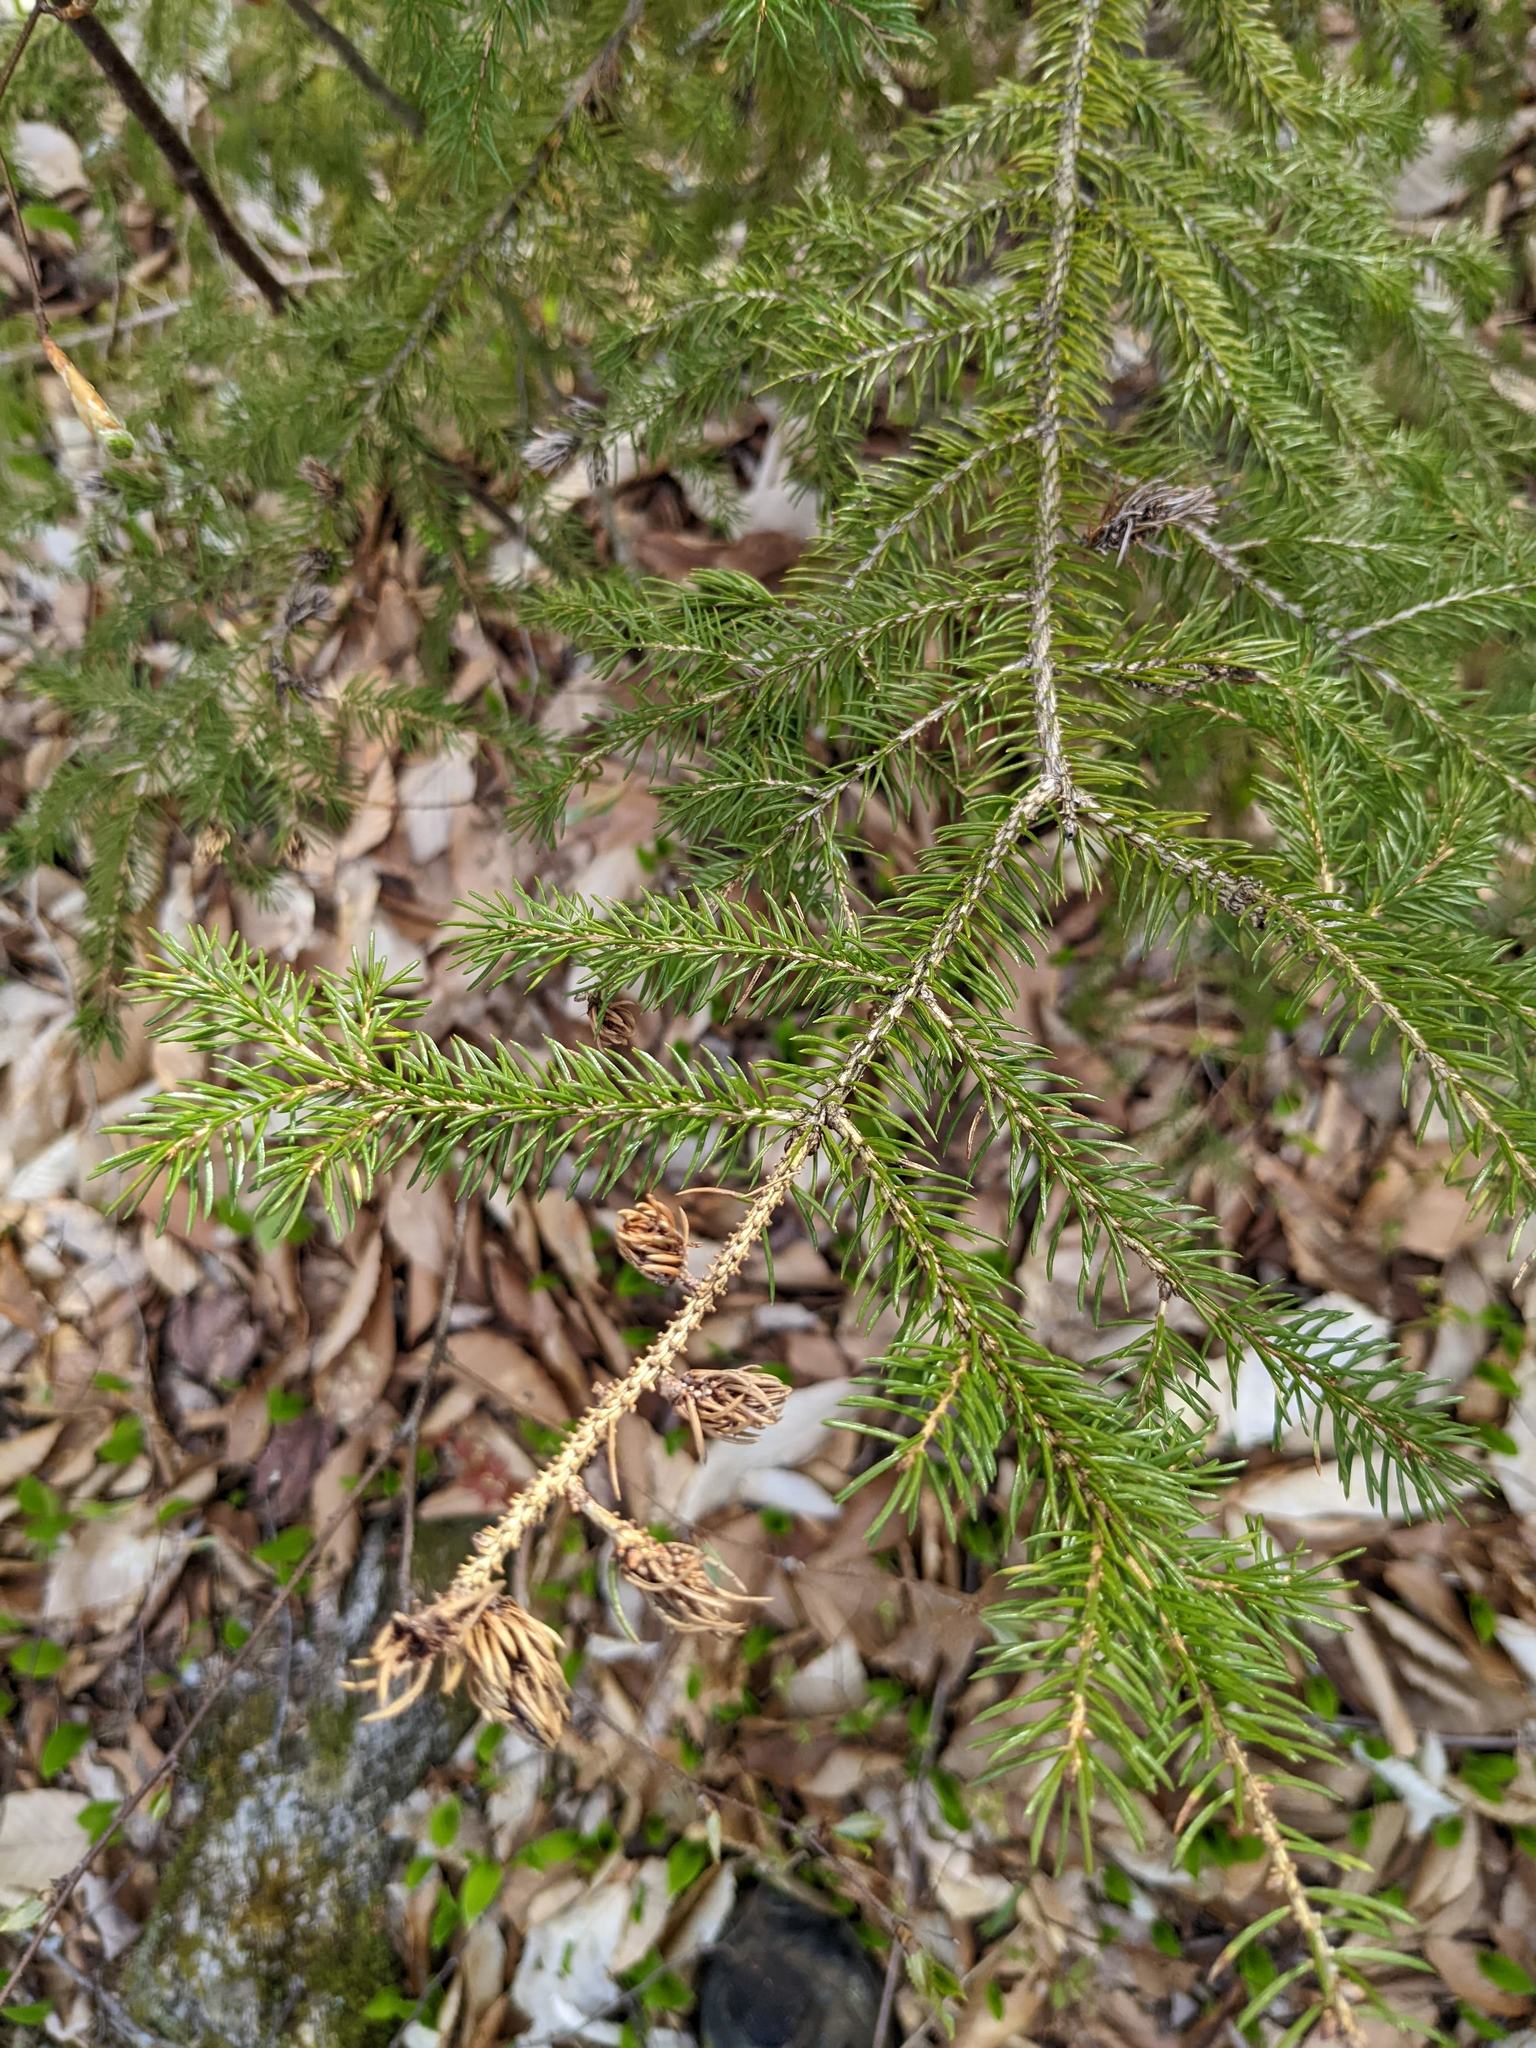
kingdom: Plantae
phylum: Tracheophyta
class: Pinopsida
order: Pinales
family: Pinaceae
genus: Picea
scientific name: Picea rubens
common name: Red spruce
